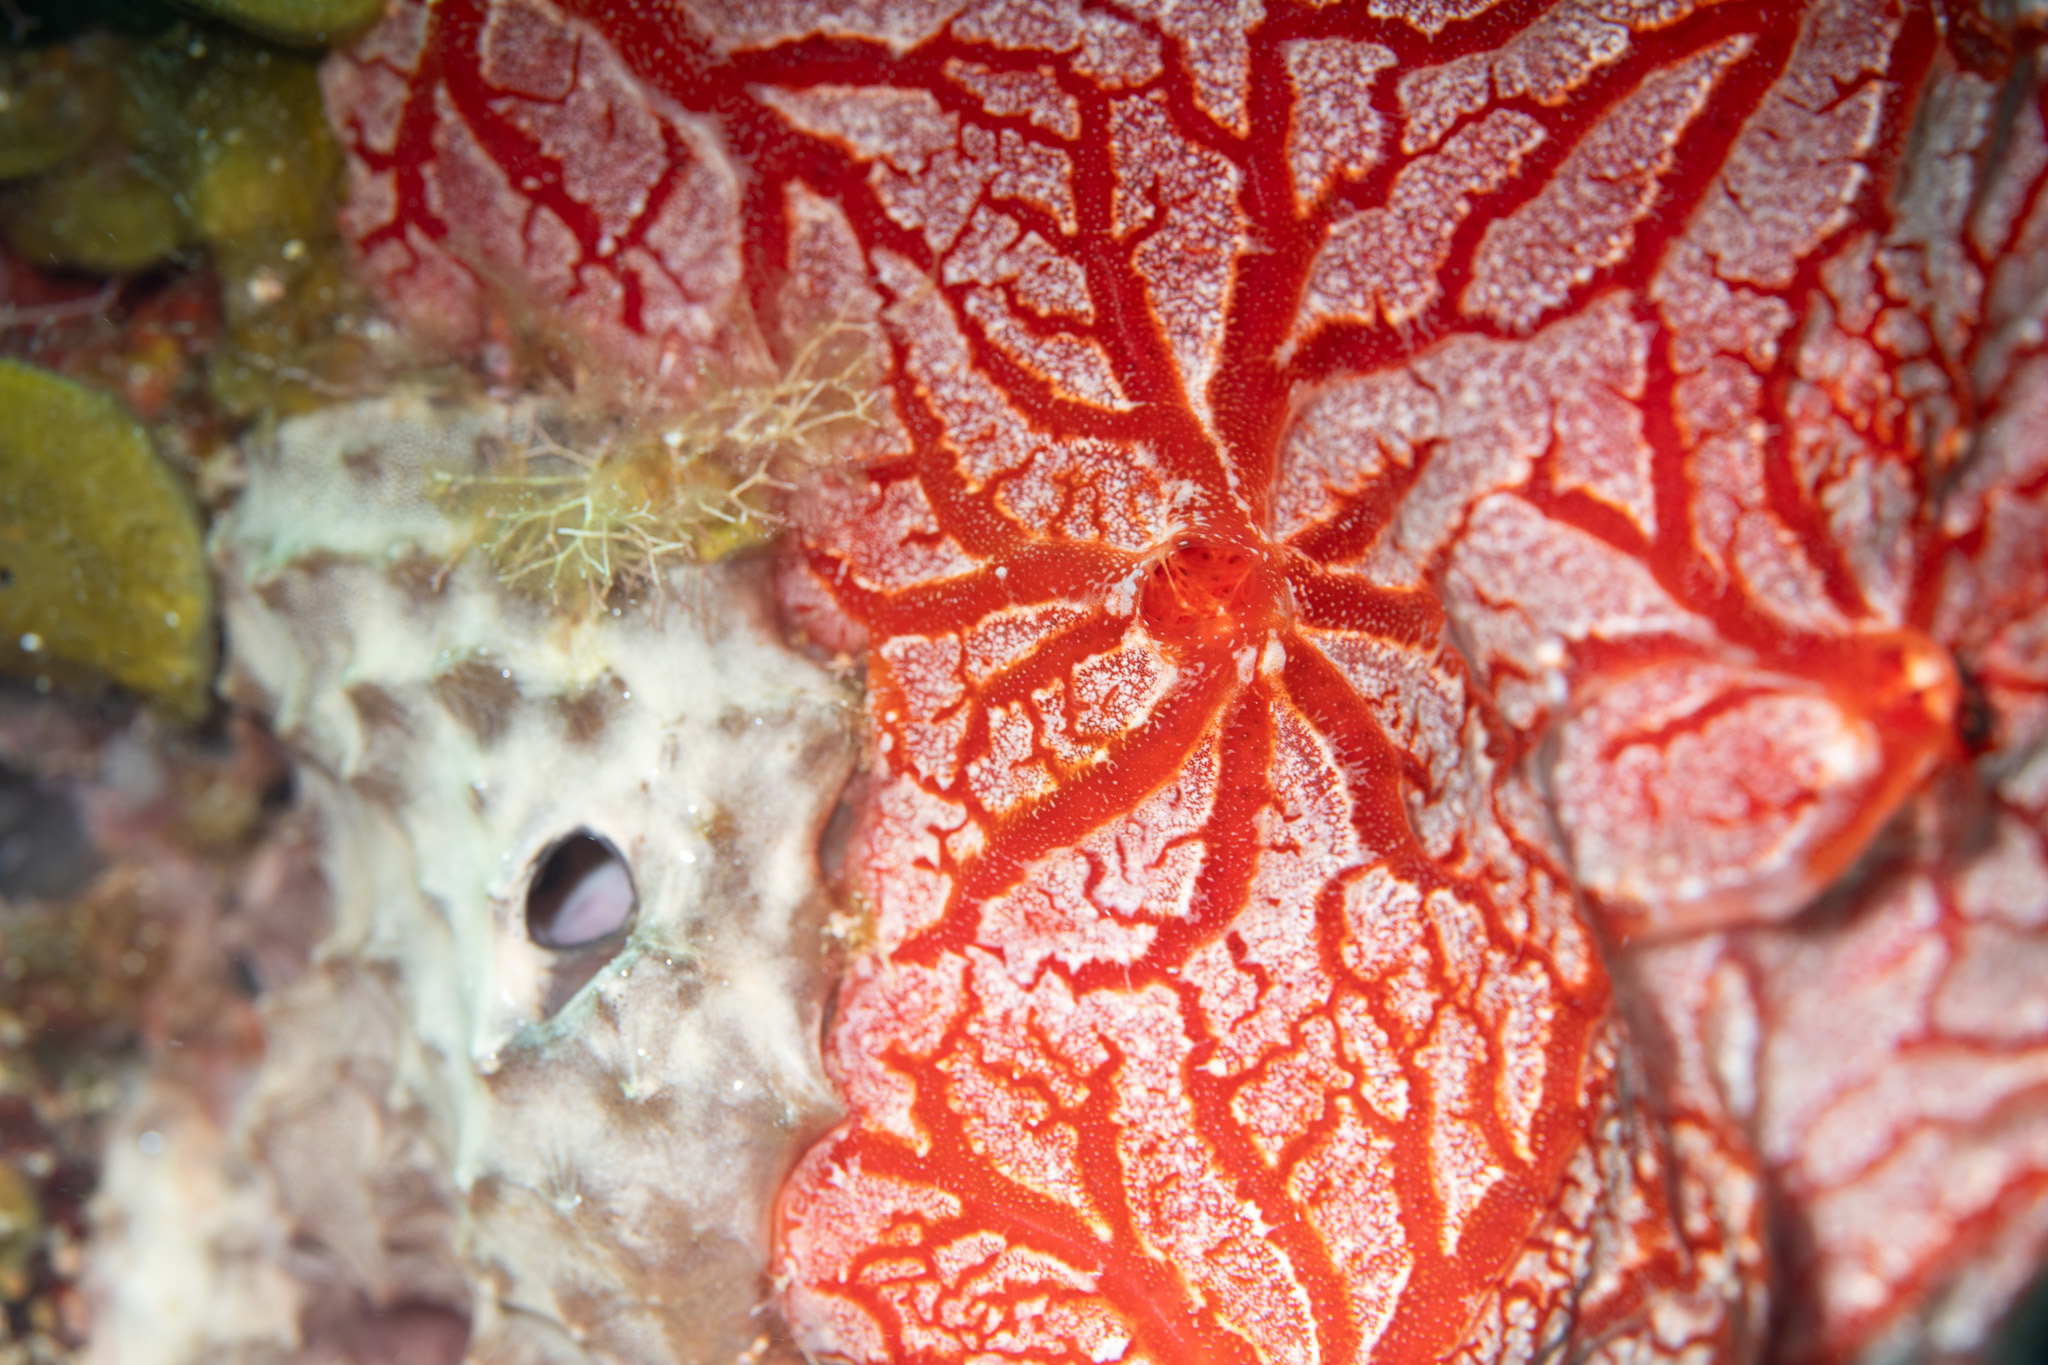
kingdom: Animalia
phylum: Porifera
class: Demospongiae
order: Poecilosclerida
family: Crambeidae
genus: Monanchora
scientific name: Monanchora arbuscula
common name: Red-white marbled sponge
